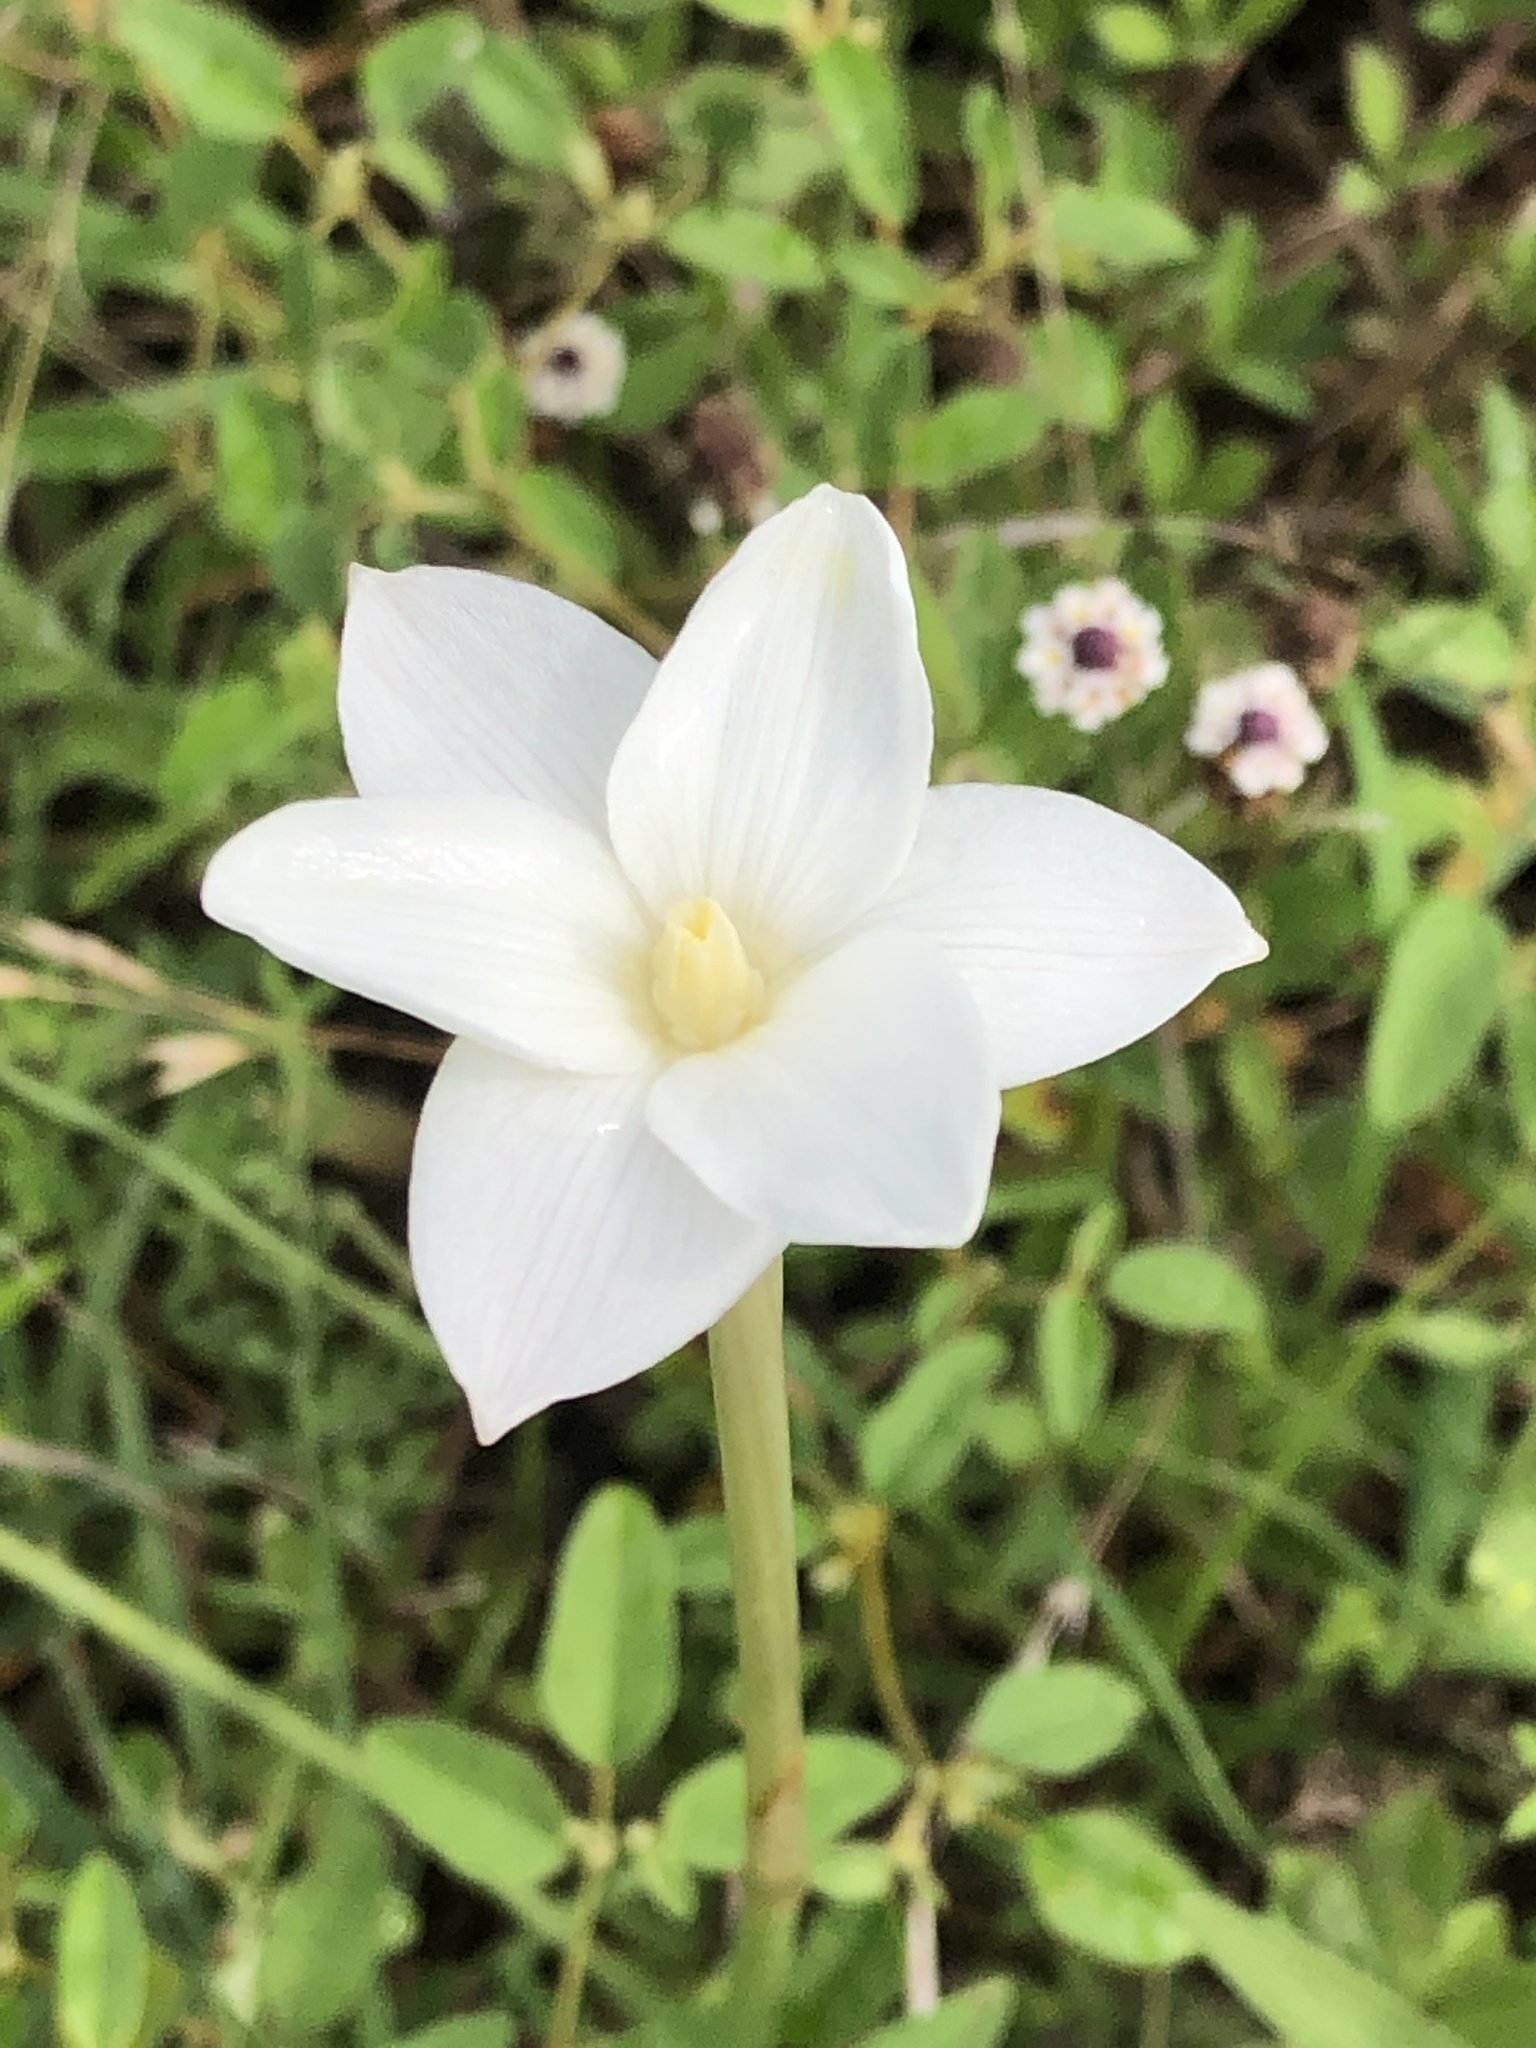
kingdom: Plantae
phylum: Tracheophyta
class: Liliopsida
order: Asparagales
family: Amaryllidaceae
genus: Zephyranthes
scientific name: Zephyranthes chlorosolen
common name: Evening rain-lily
